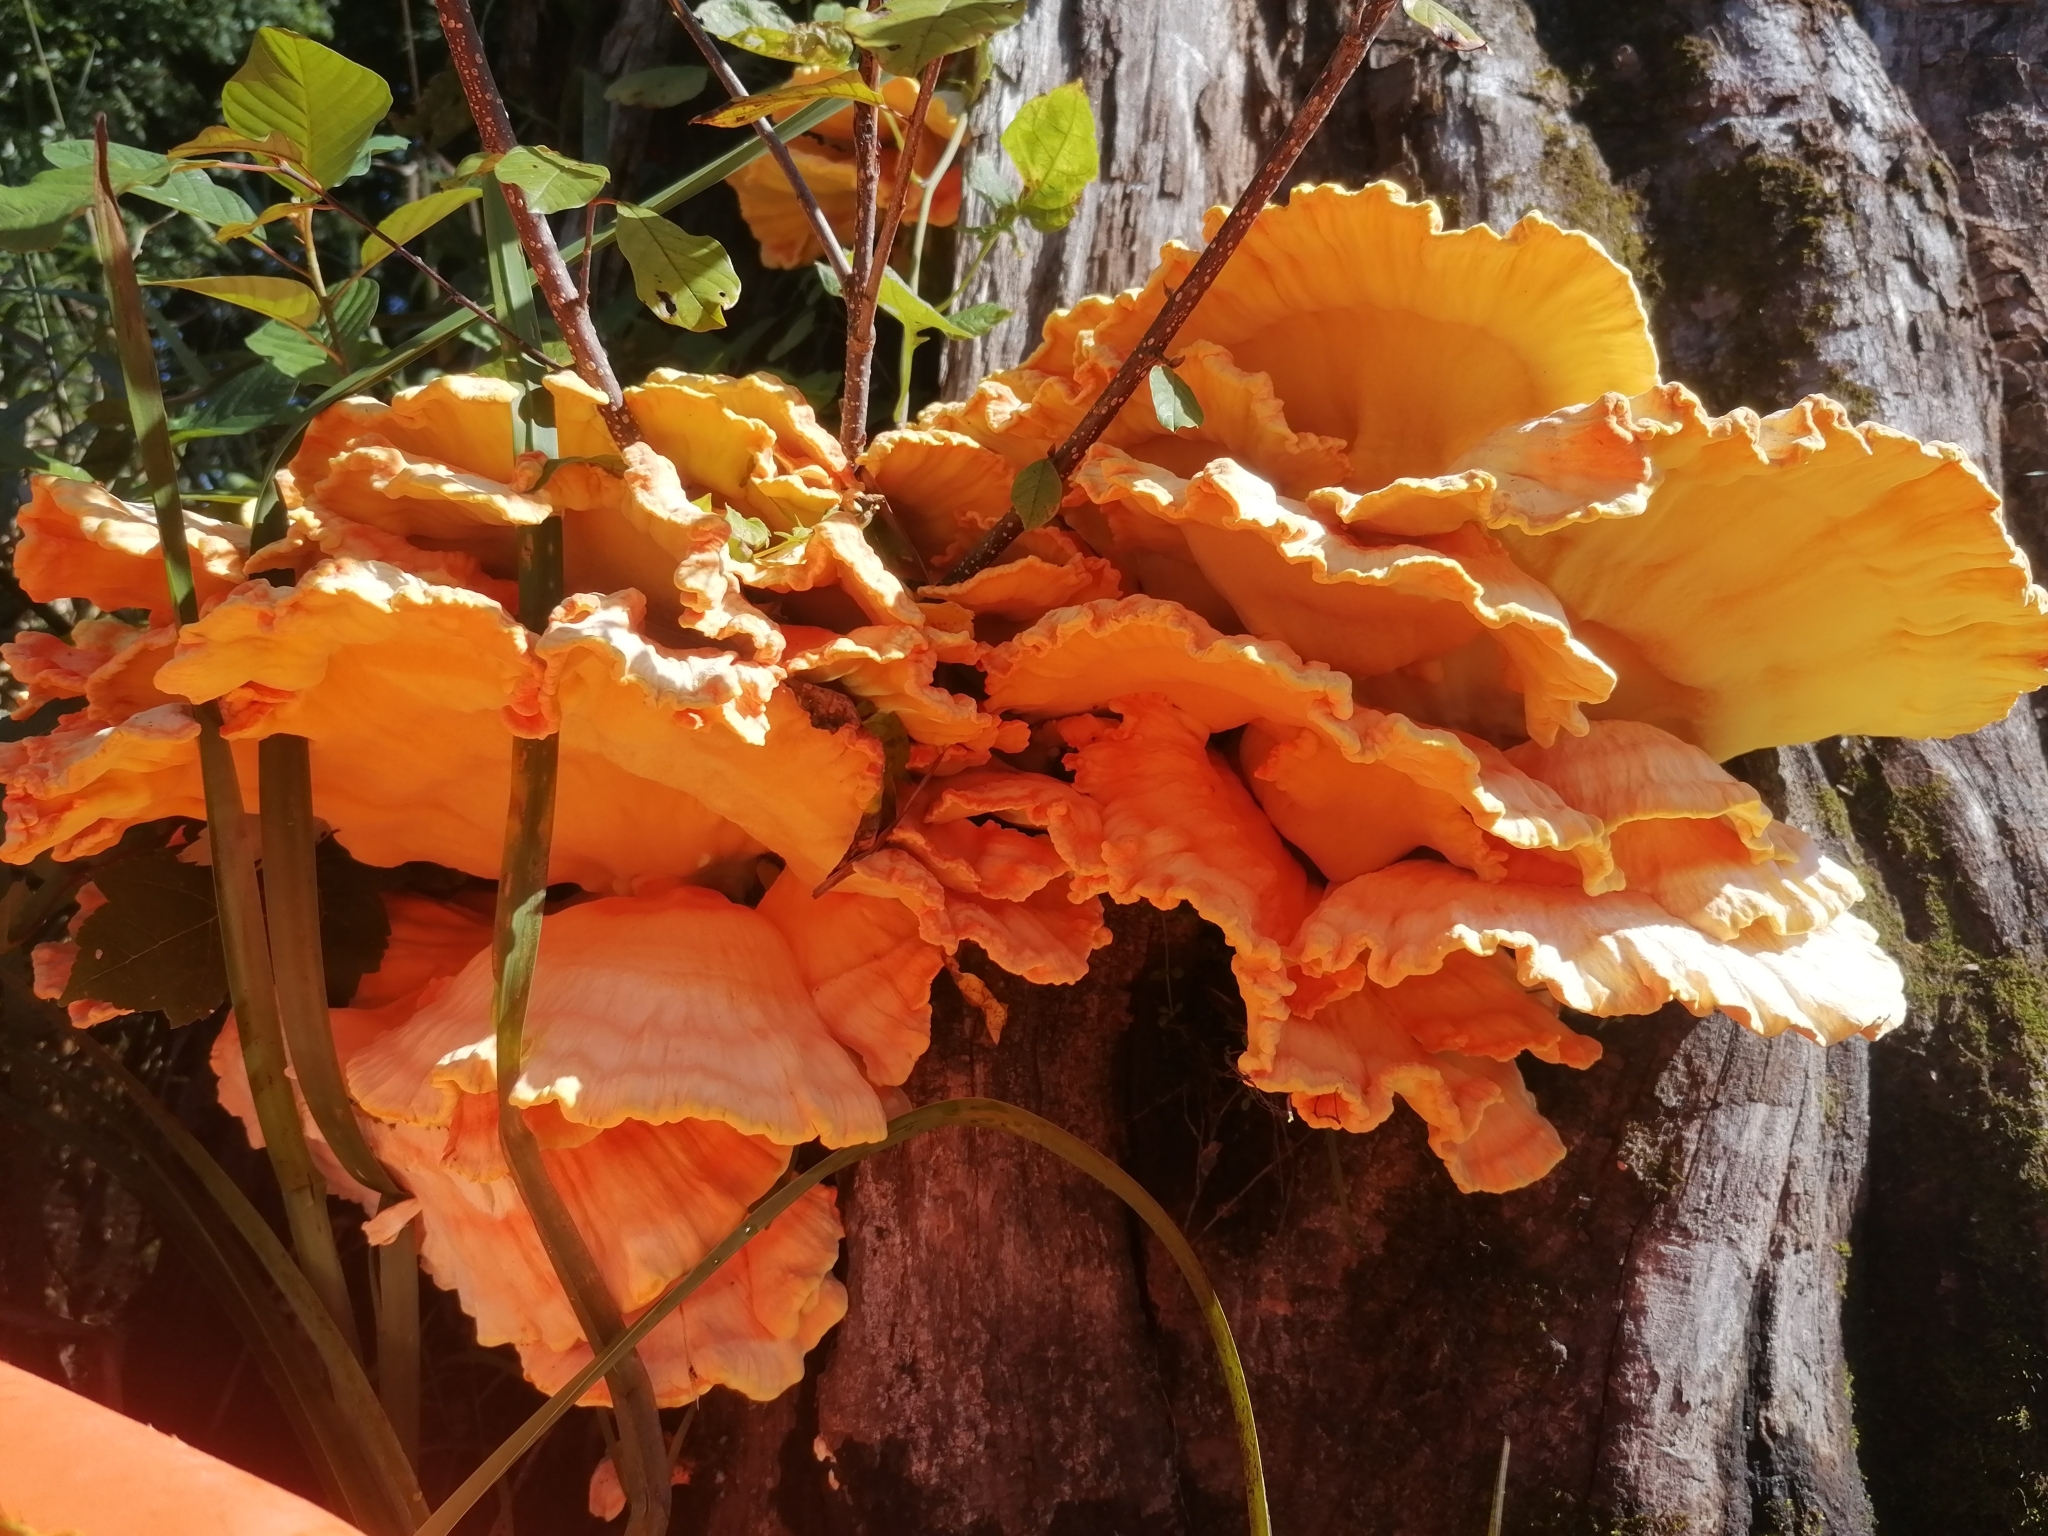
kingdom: Fungi
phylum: Basidiomycota
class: Agaricomycetes
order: Polyporales
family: Laetiporaceae
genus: Laetiporus
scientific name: Laetiporus sulphureus
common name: Chicken of the woods
